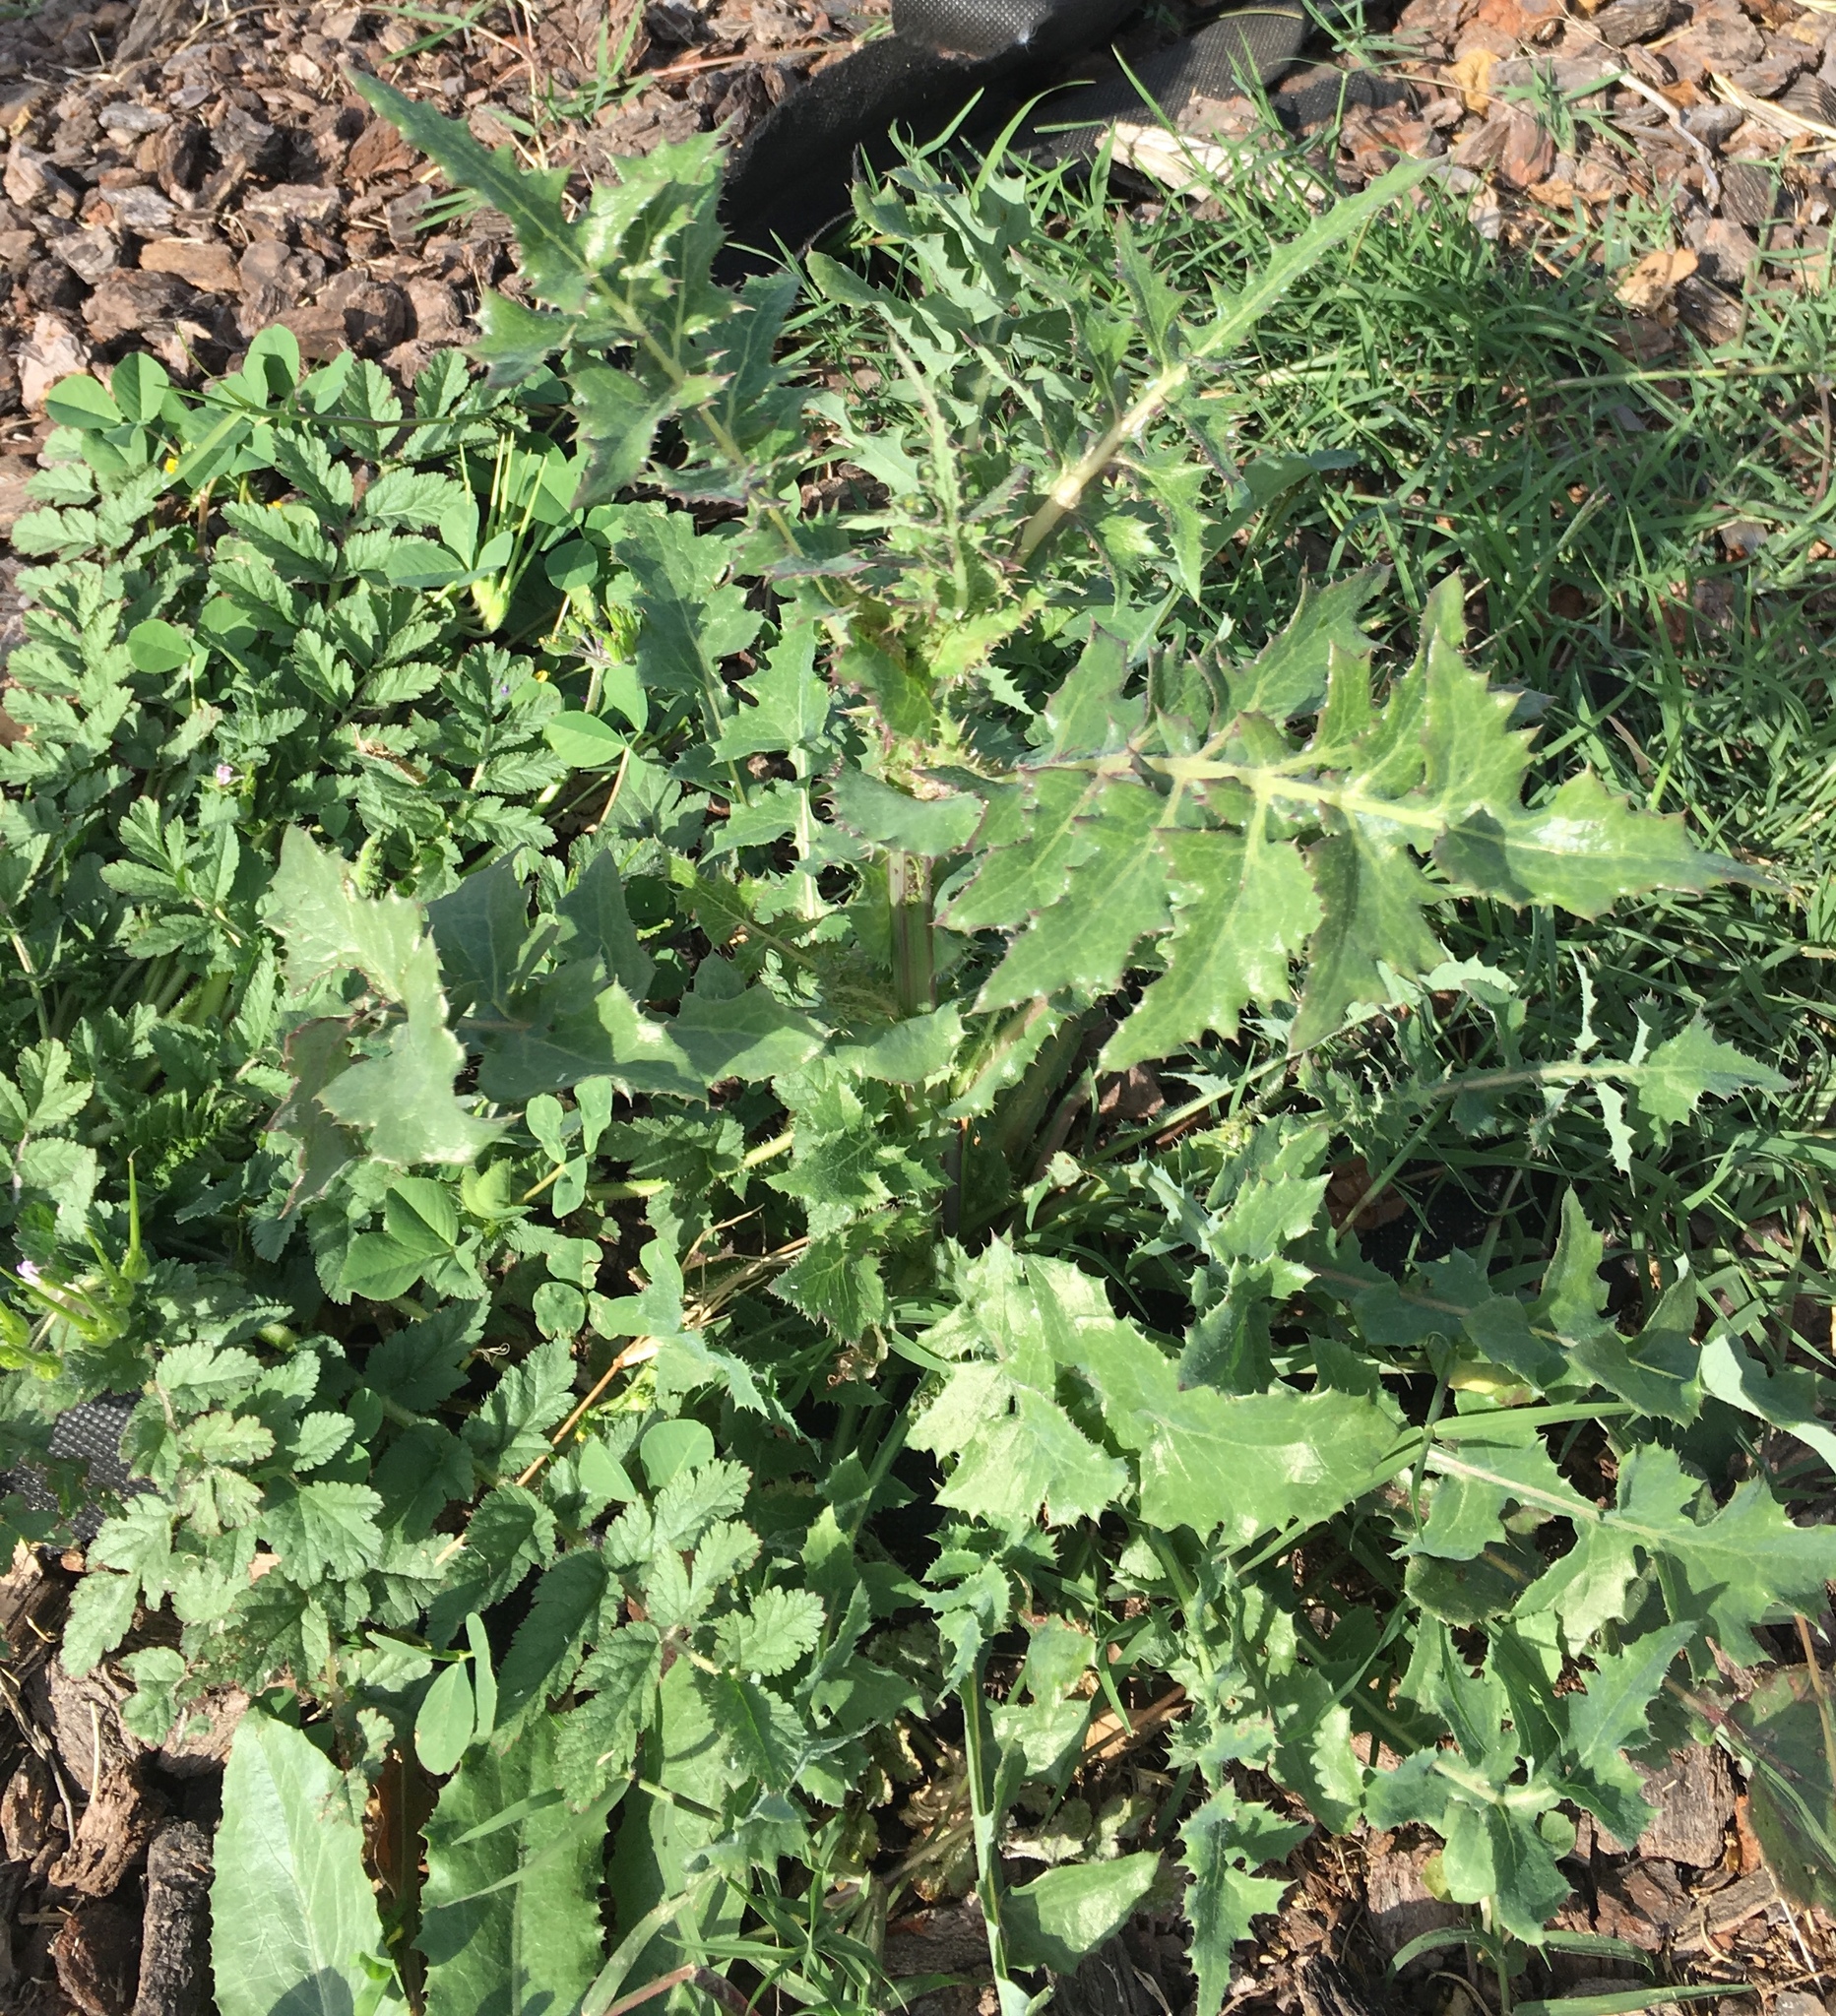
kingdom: Plantae
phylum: Tracheophyta
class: Magnoliopsida
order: Asterales
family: Asteraceae
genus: Sonchus
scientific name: Sonchus asper
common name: Prickly sow-thistle
